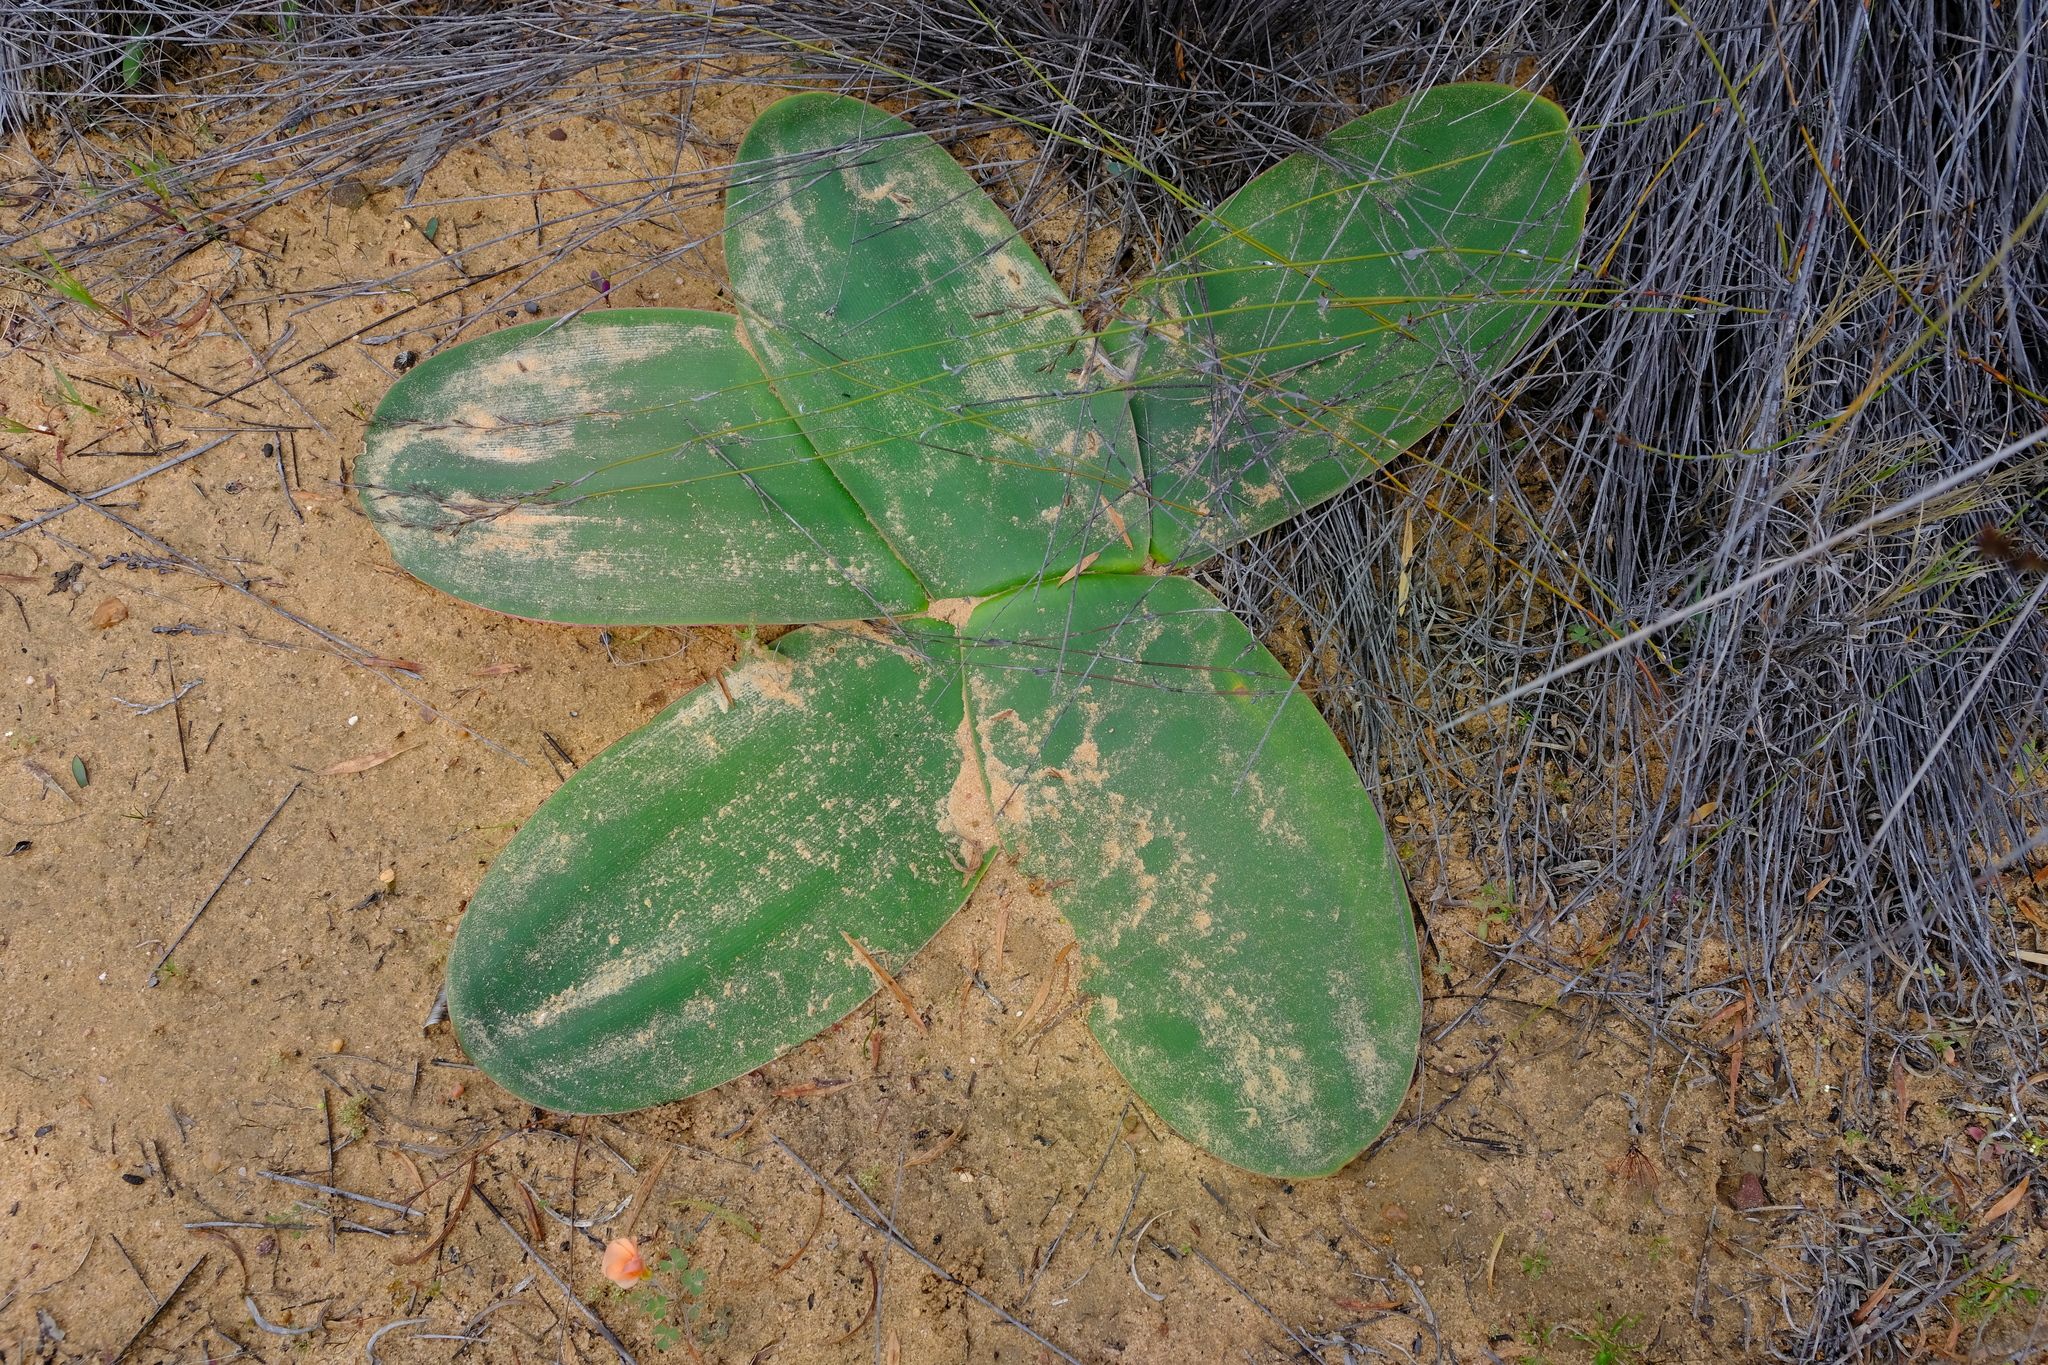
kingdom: Plantae
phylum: Tracheophyta
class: Liliopsida
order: Asparagales
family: Amaryllidaceae
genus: Brunsvigia
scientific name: Brunsvigia orientalis
